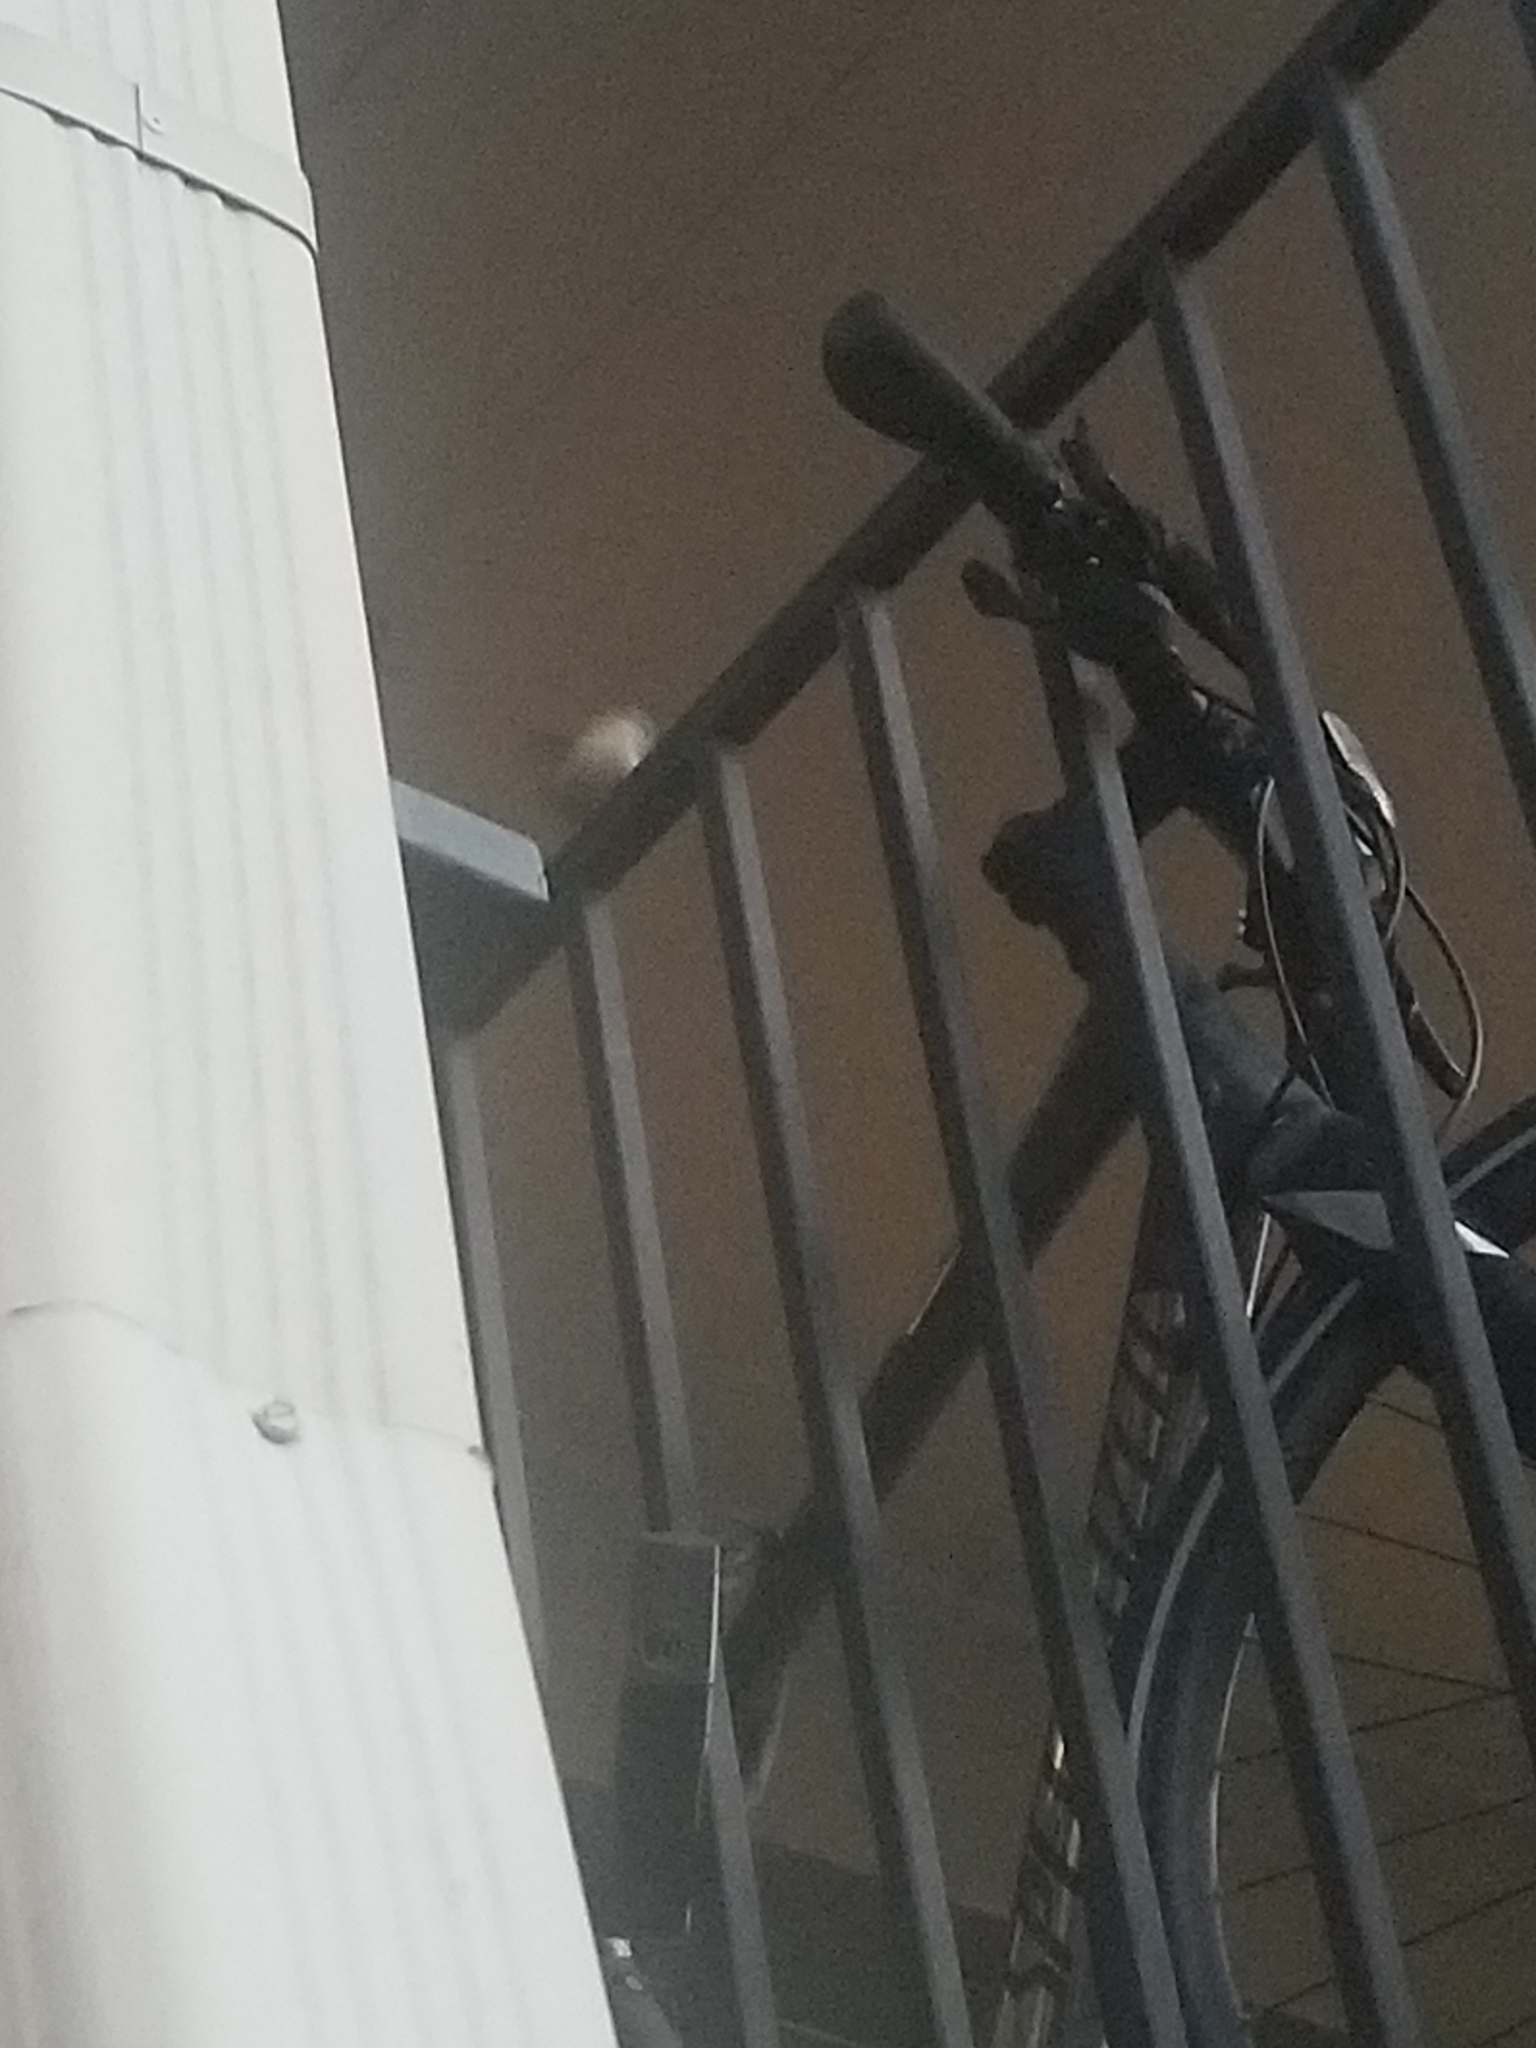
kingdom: Animalia
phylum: Chordata
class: Aves
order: Passeriformes
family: Troglodytidae
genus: Thryothorus
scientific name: Thryothorus ludovicianus
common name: Carolina wren
